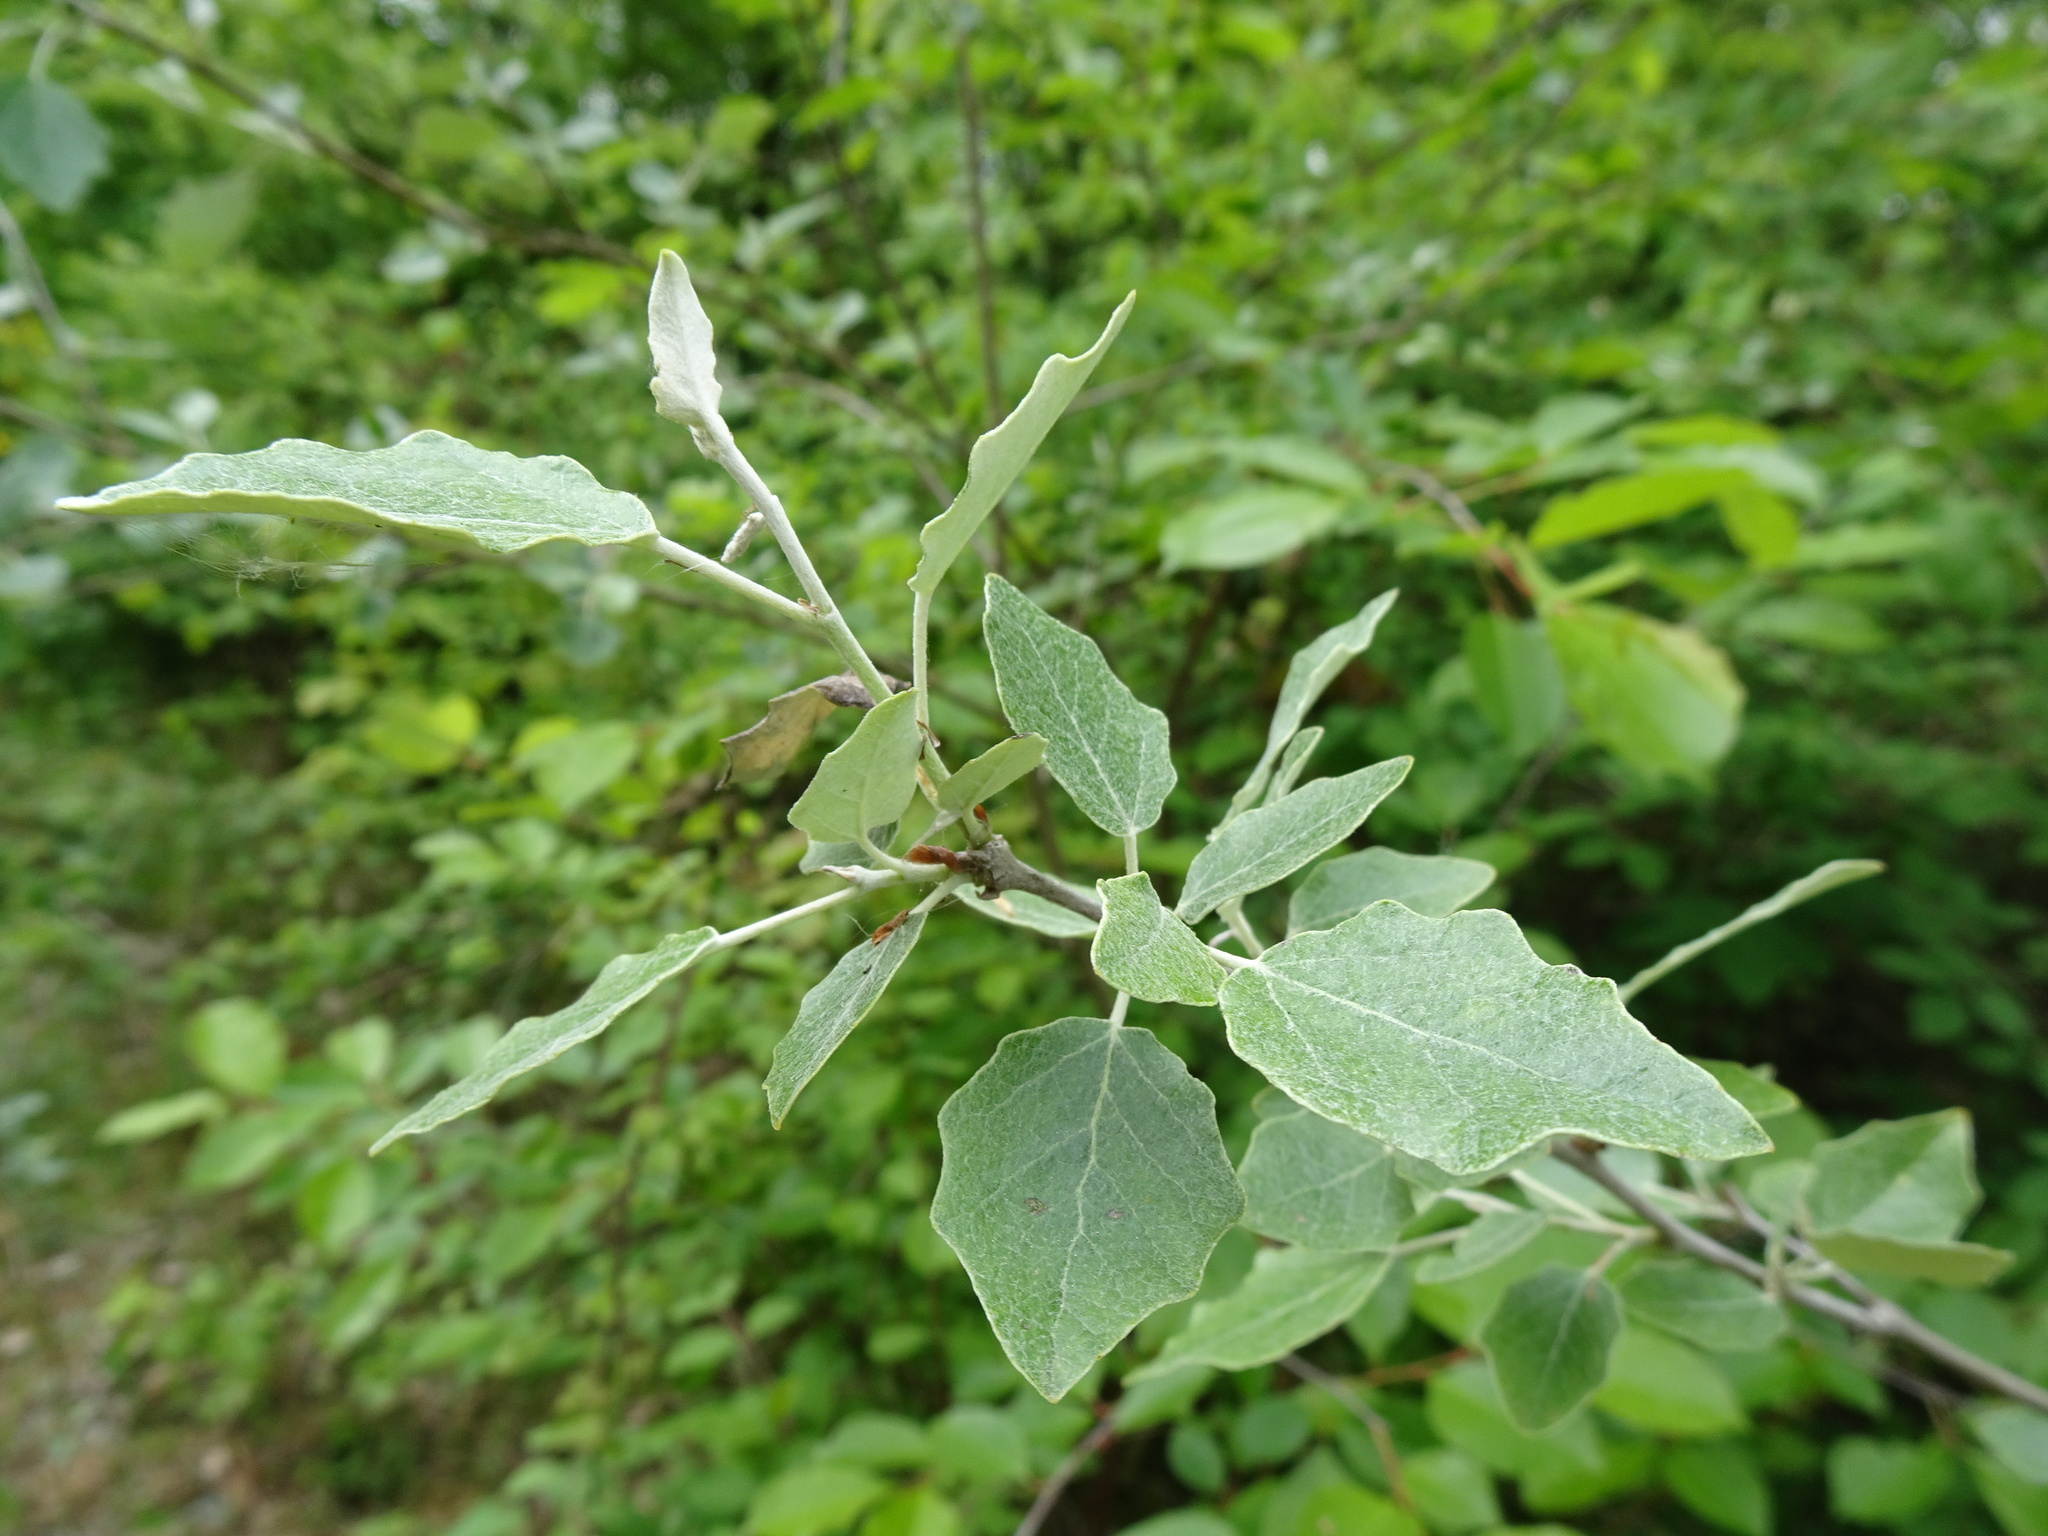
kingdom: Plantae
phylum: Tracheophyta
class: Magnoliopsida
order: Malpighiales
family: Salicaceae
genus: Populus
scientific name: Populus alba
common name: White poplar
